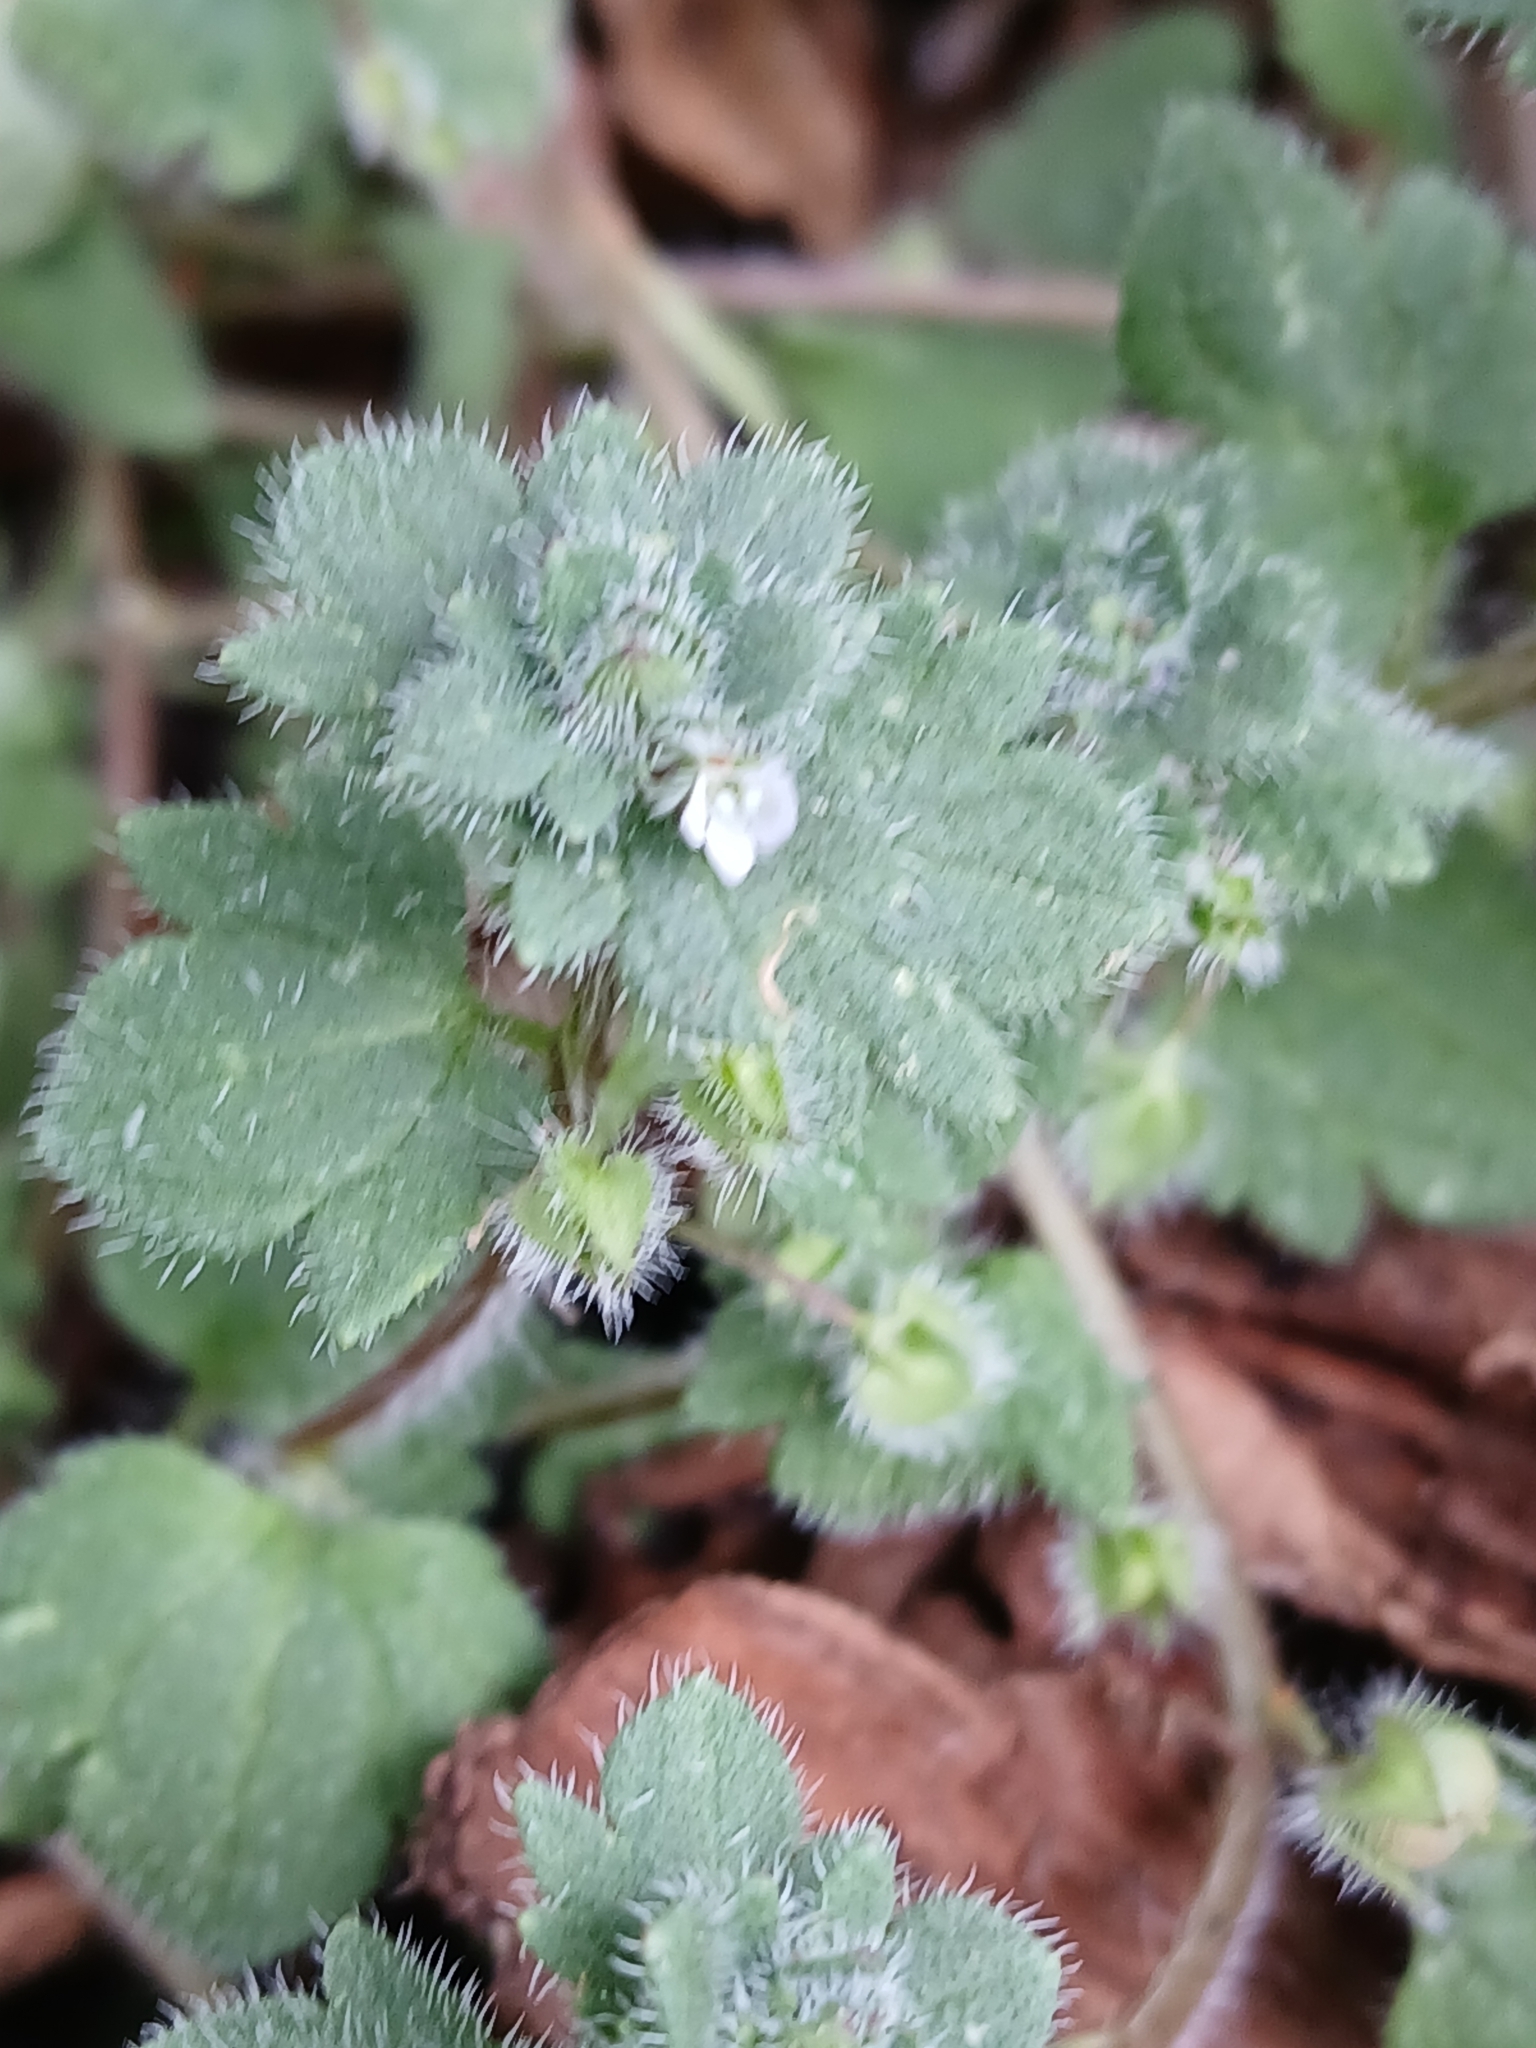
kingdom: Plantae
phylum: Tracheophyta
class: Magnoliopsida
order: Lamiales
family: Plantaginaceae
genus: Veronica
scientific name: Veronica sublobata
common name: False ivy-leaved speedwell
